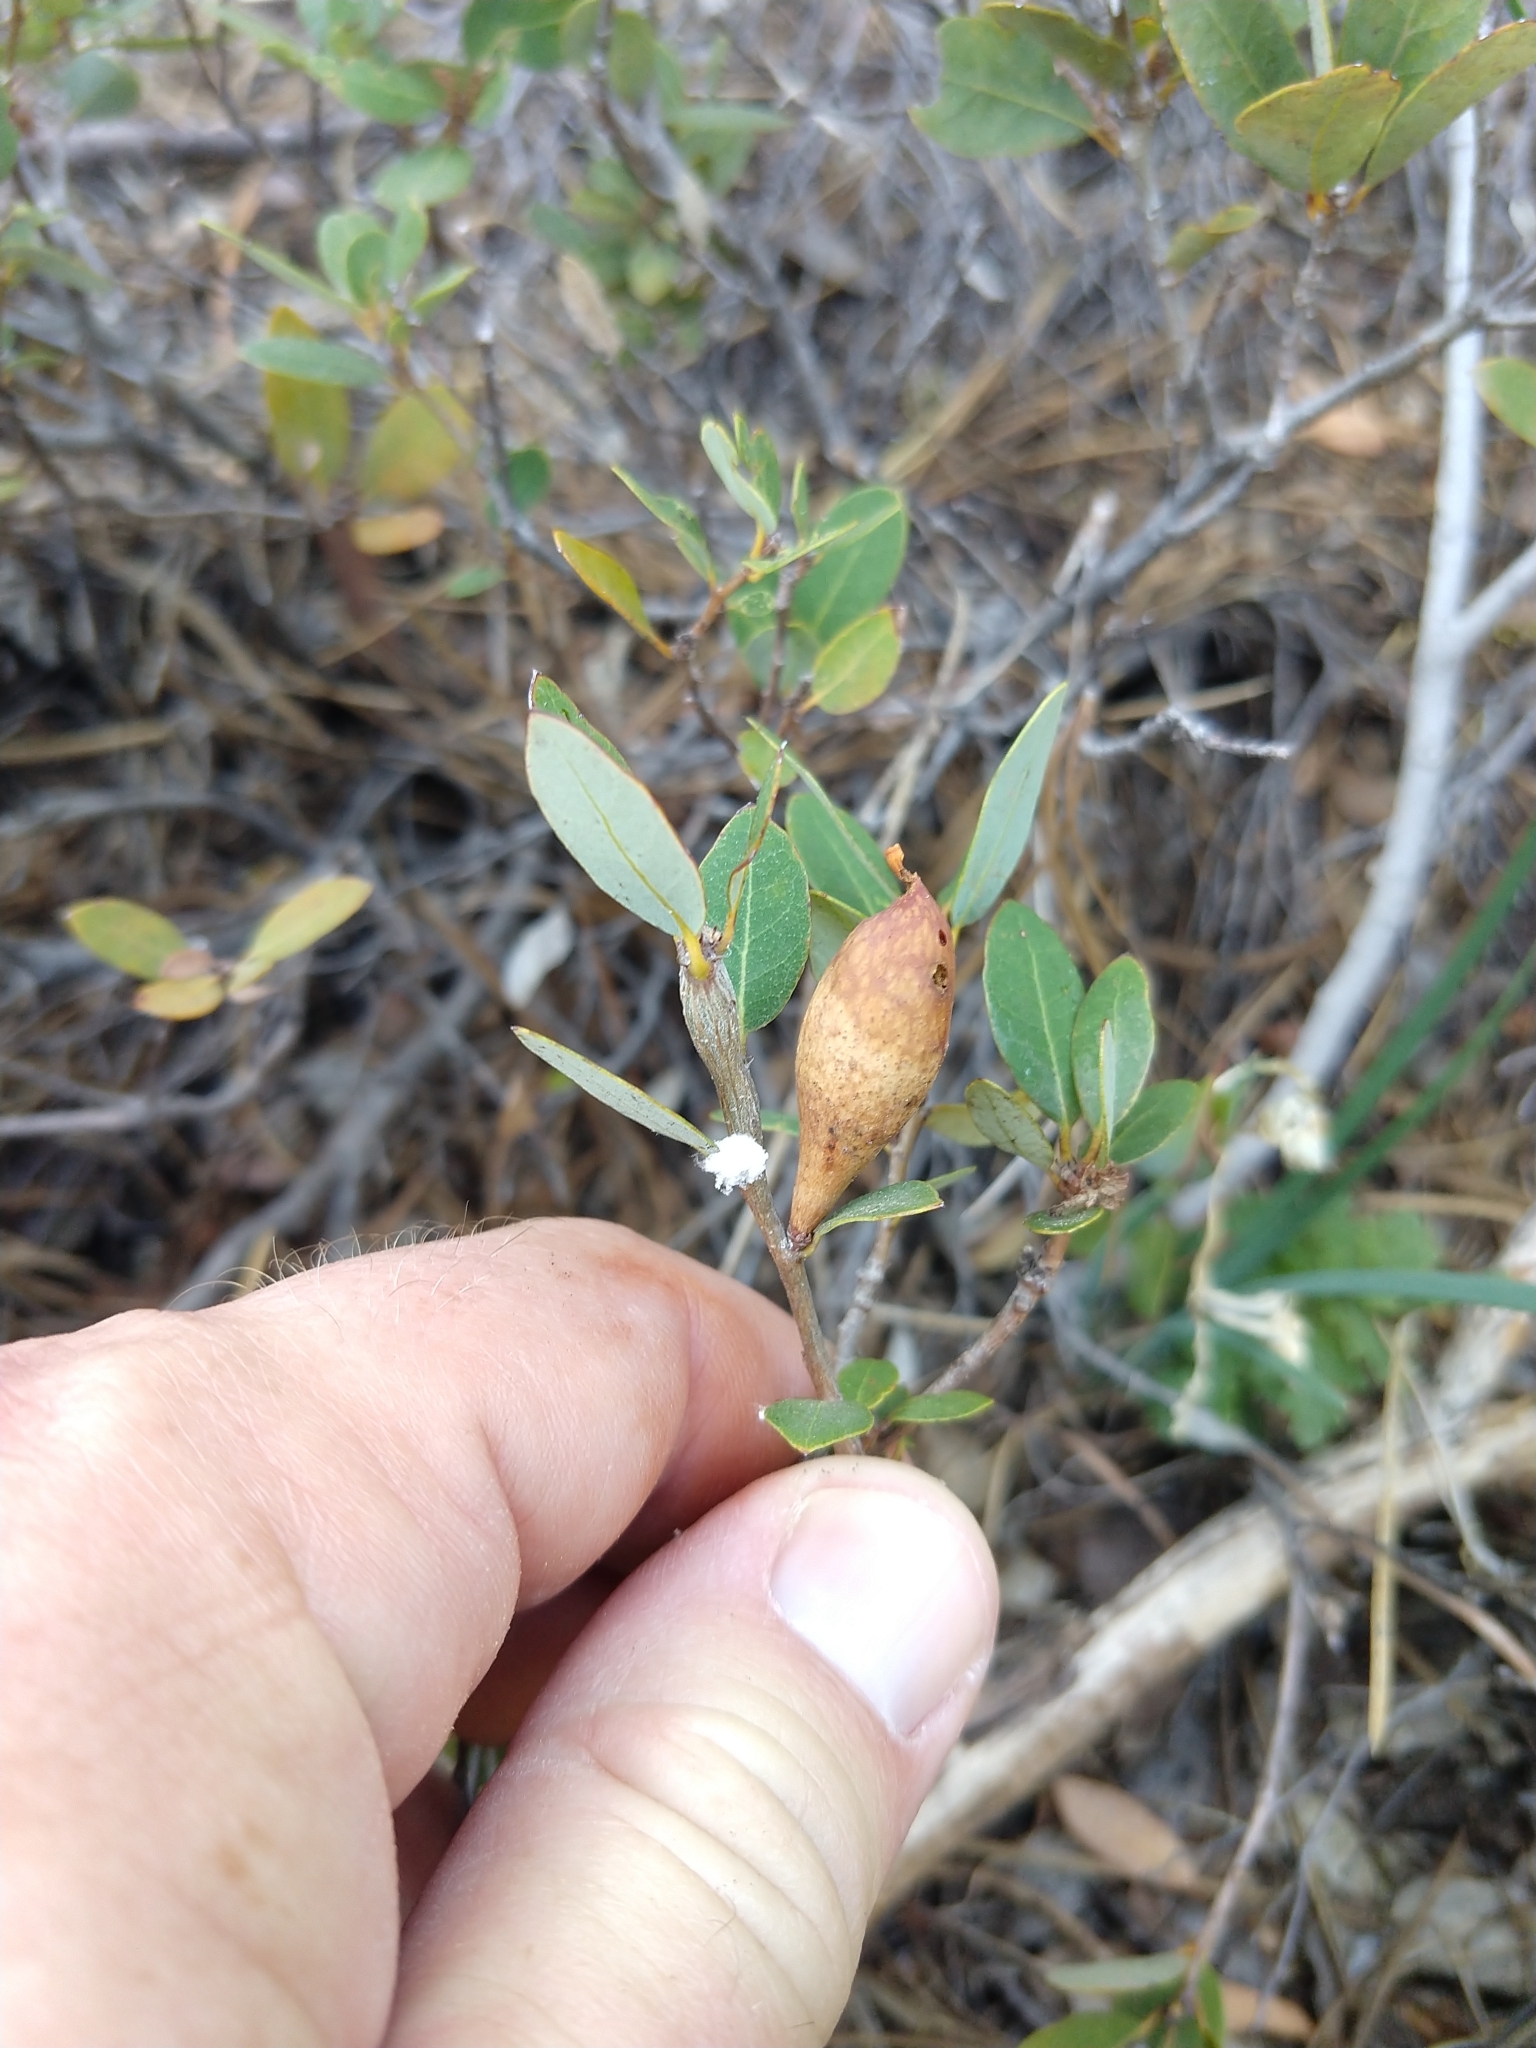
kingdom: Animalia
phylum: Arthropoda
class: Insecta
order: Hymenoptera
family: Cynipidae
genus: Heteroecus
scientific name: Heteroecus pacificus
